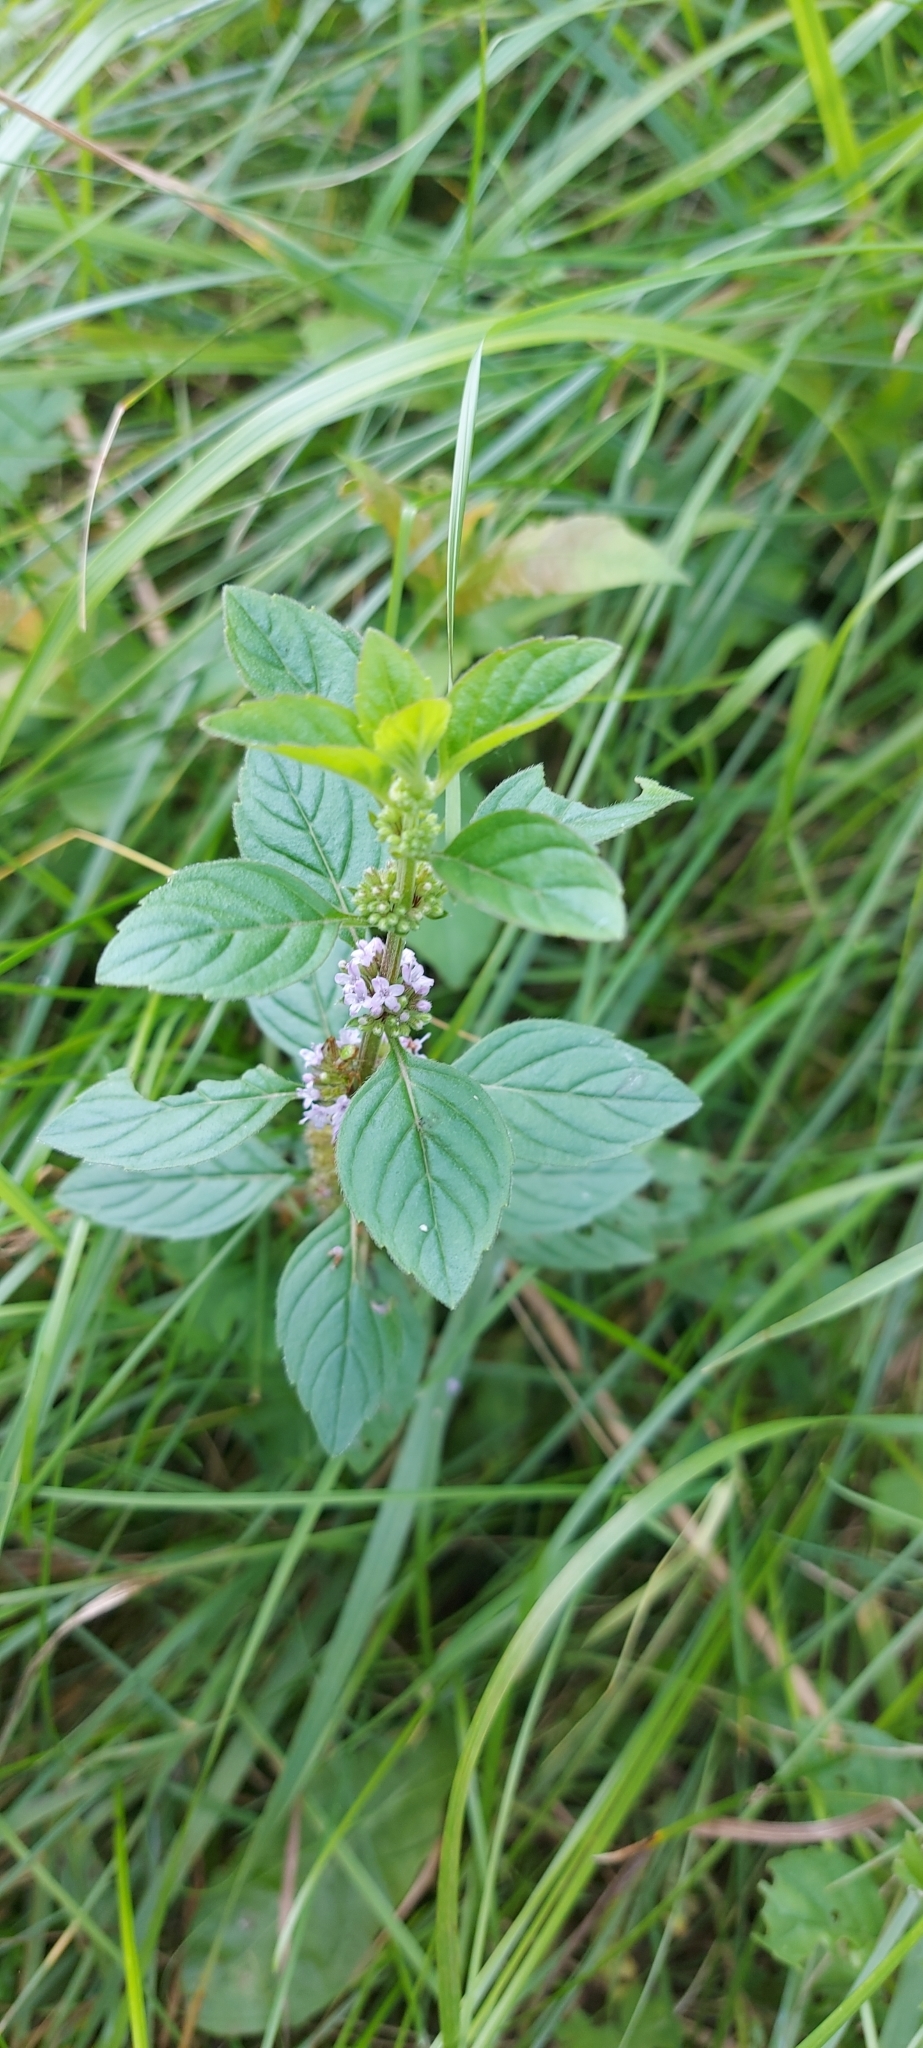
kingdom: Plantae
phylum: Tracheophyta
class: Magnoliopsida
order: Lamiales
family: Lamiaceae
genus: Mentha
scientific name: Mentha arvensis
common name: Corn mint
